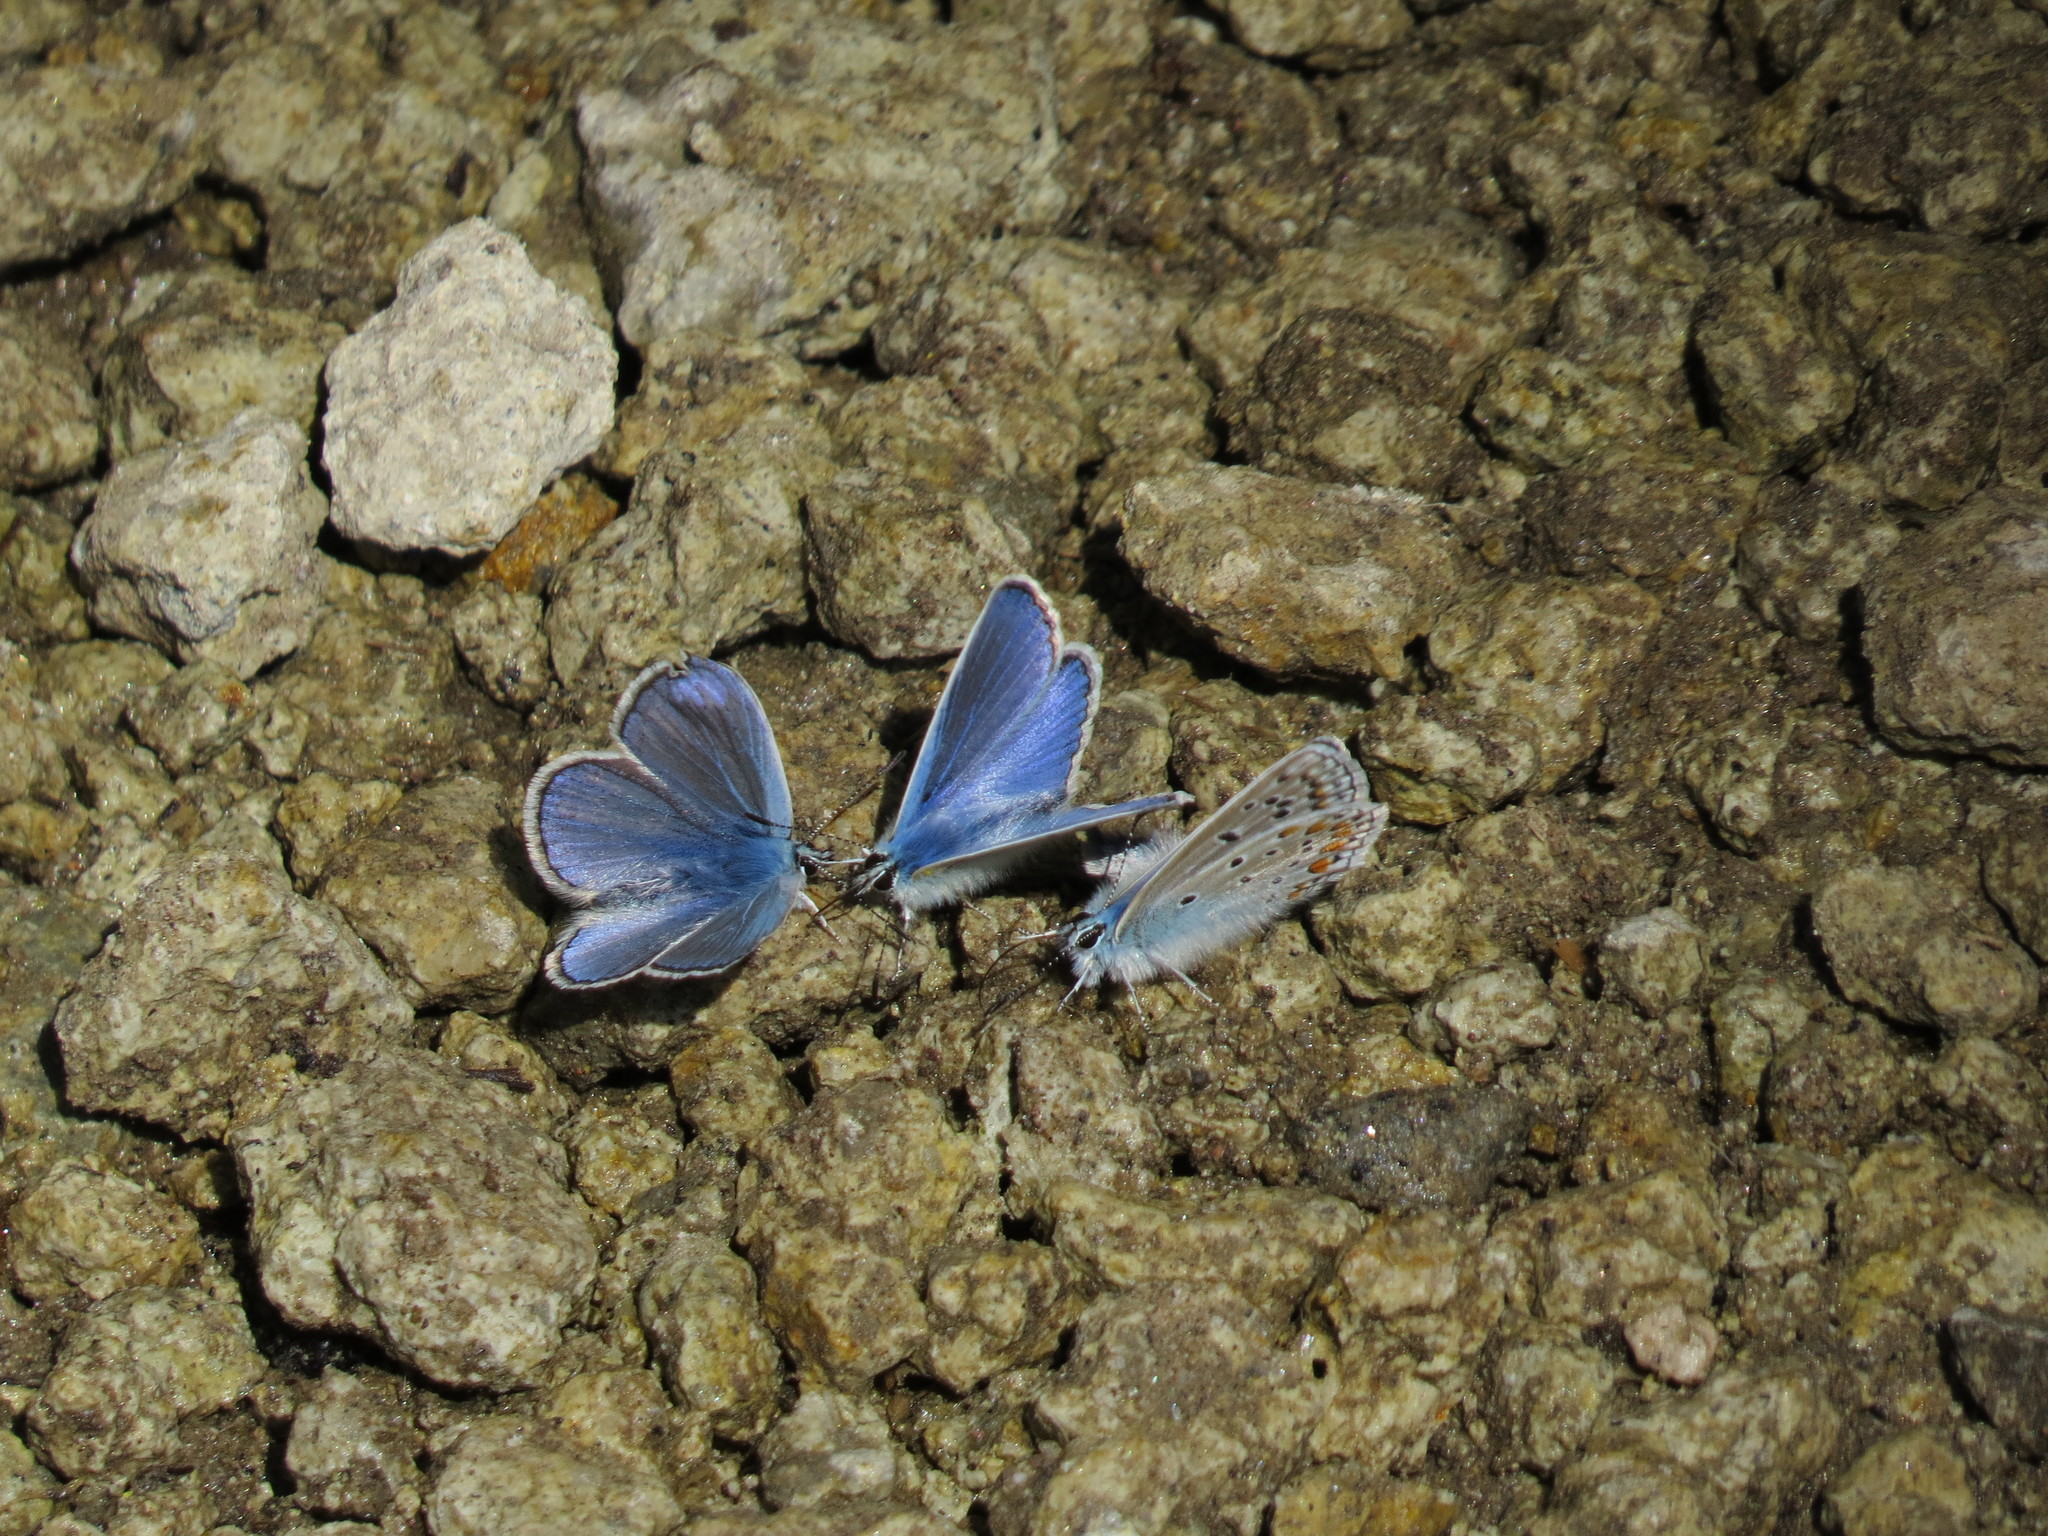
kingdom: Animalia
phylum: Arthropoda
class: Insecta
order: Lepidoptera
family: Lycaenidae
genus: Polyommatus
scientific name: Polyommatus icarus
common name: Common blue
